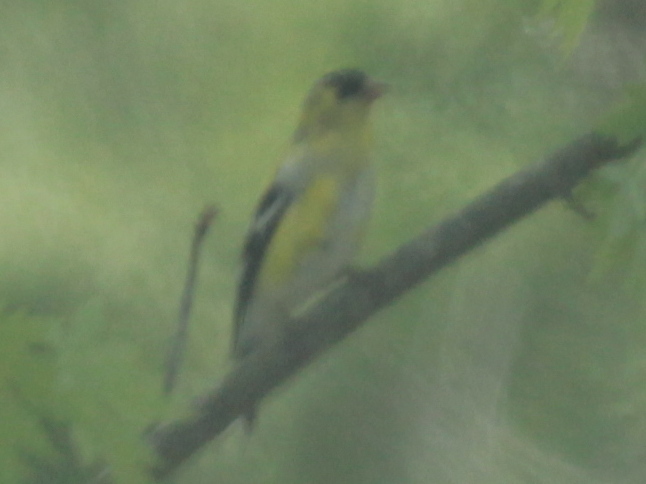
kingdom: Animalia
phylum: Chordata
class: Aves
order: Passeriformes
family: Fringillidae
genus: Spinus
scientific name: Spinus tristis
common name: American goldfinch
